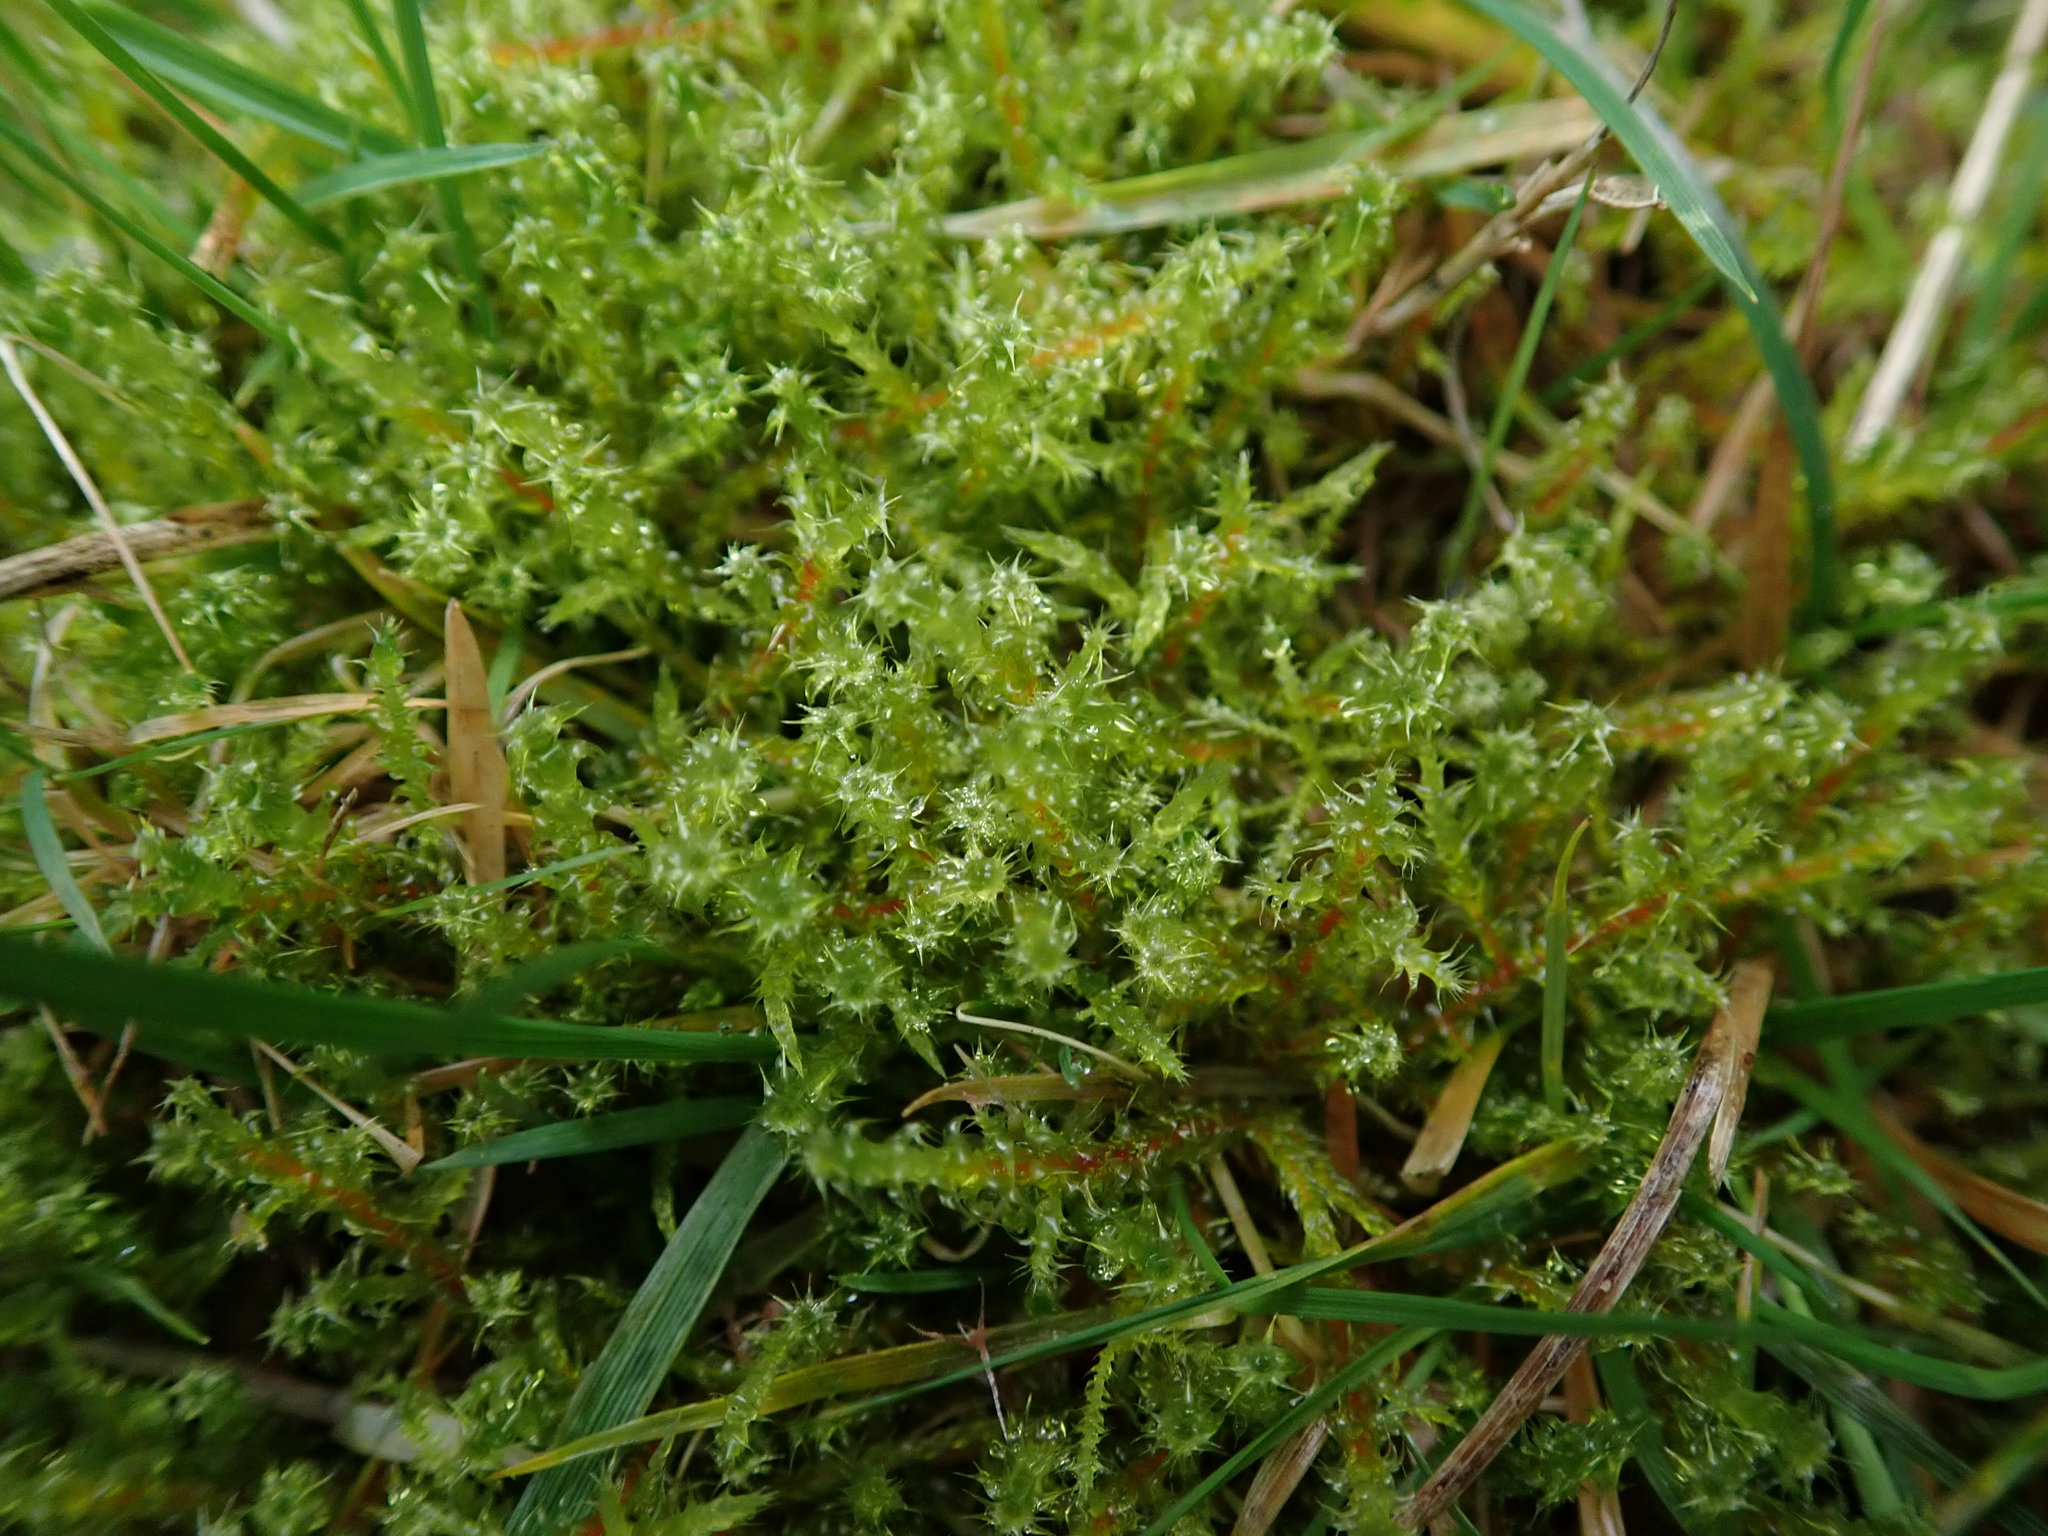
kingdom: Plantae
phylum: Bryophyta
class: Bryopsida
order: Hypnales
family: Hylocomiaceae
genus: Rhytidiadelphus
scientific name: Rhytidiadelphus squarrosus
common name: Springy turf-moss
